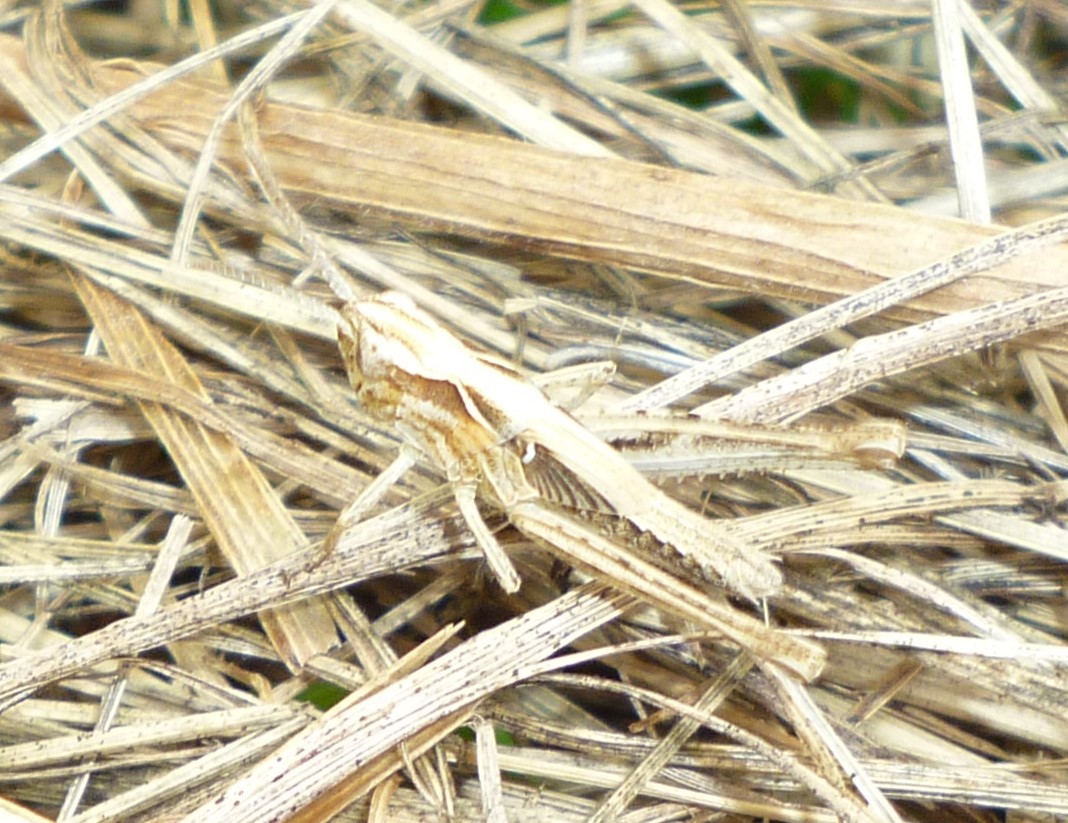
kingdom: Animalia
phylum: Arthropoda
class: Insecta
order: Orthoptera
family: Acrididae
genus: Chorthippus
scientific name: Chorthippus brunneus
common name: Field grasshopper
